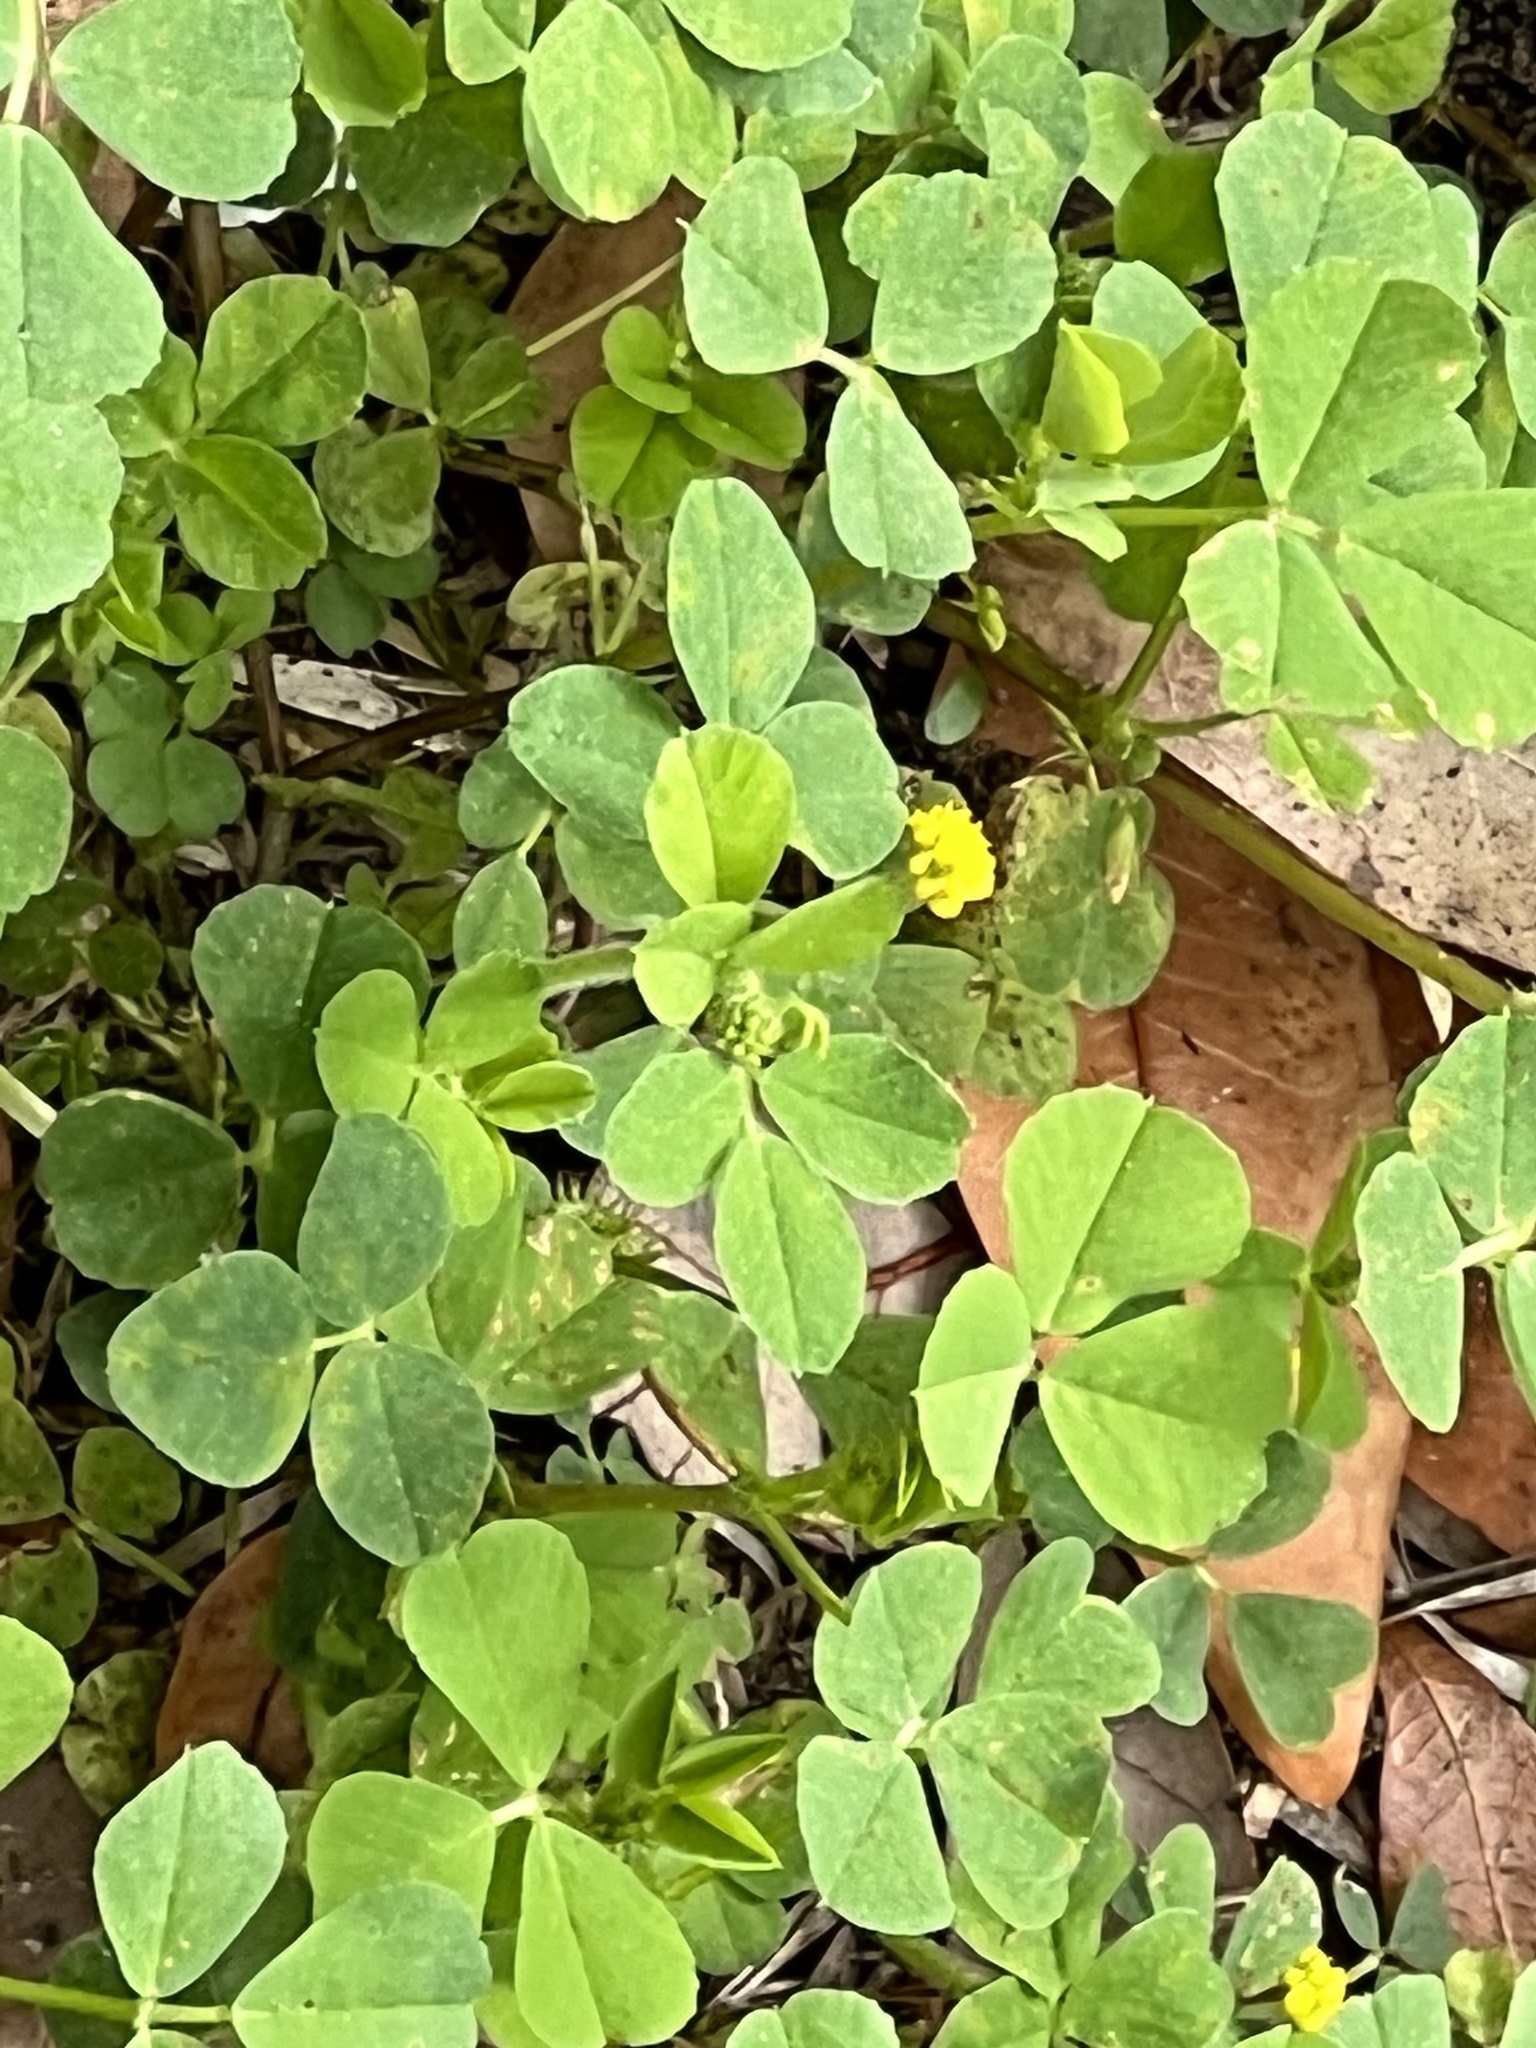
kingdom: Plantae
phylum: Tracheophyta
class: Magnoliopsida
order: Fabales
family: Fabaceae
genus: Medicago
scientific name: Medicago lupulina
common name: Black medick
